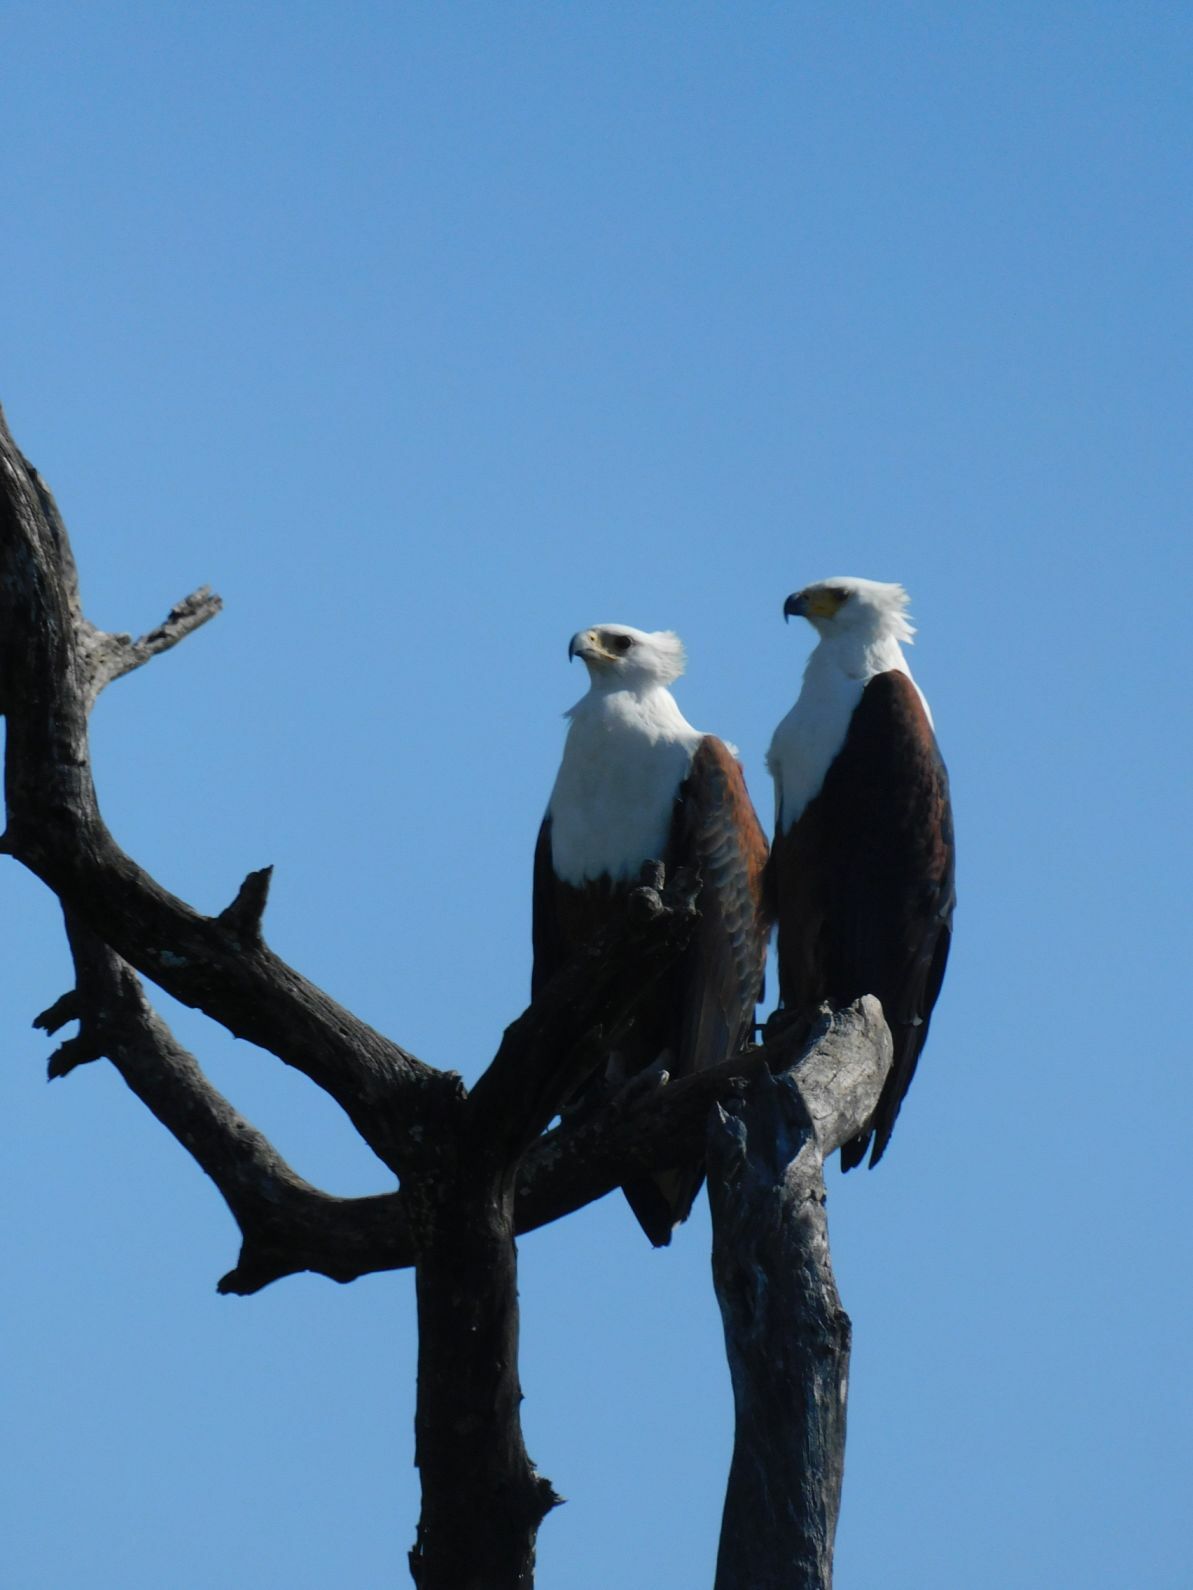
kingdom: Animalia
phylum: Chordata
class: Aves
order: Accipitriformes
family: Accipitridae
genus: Haliaeetus
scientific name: Haliaeetus vocifer
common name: African fish eagle
